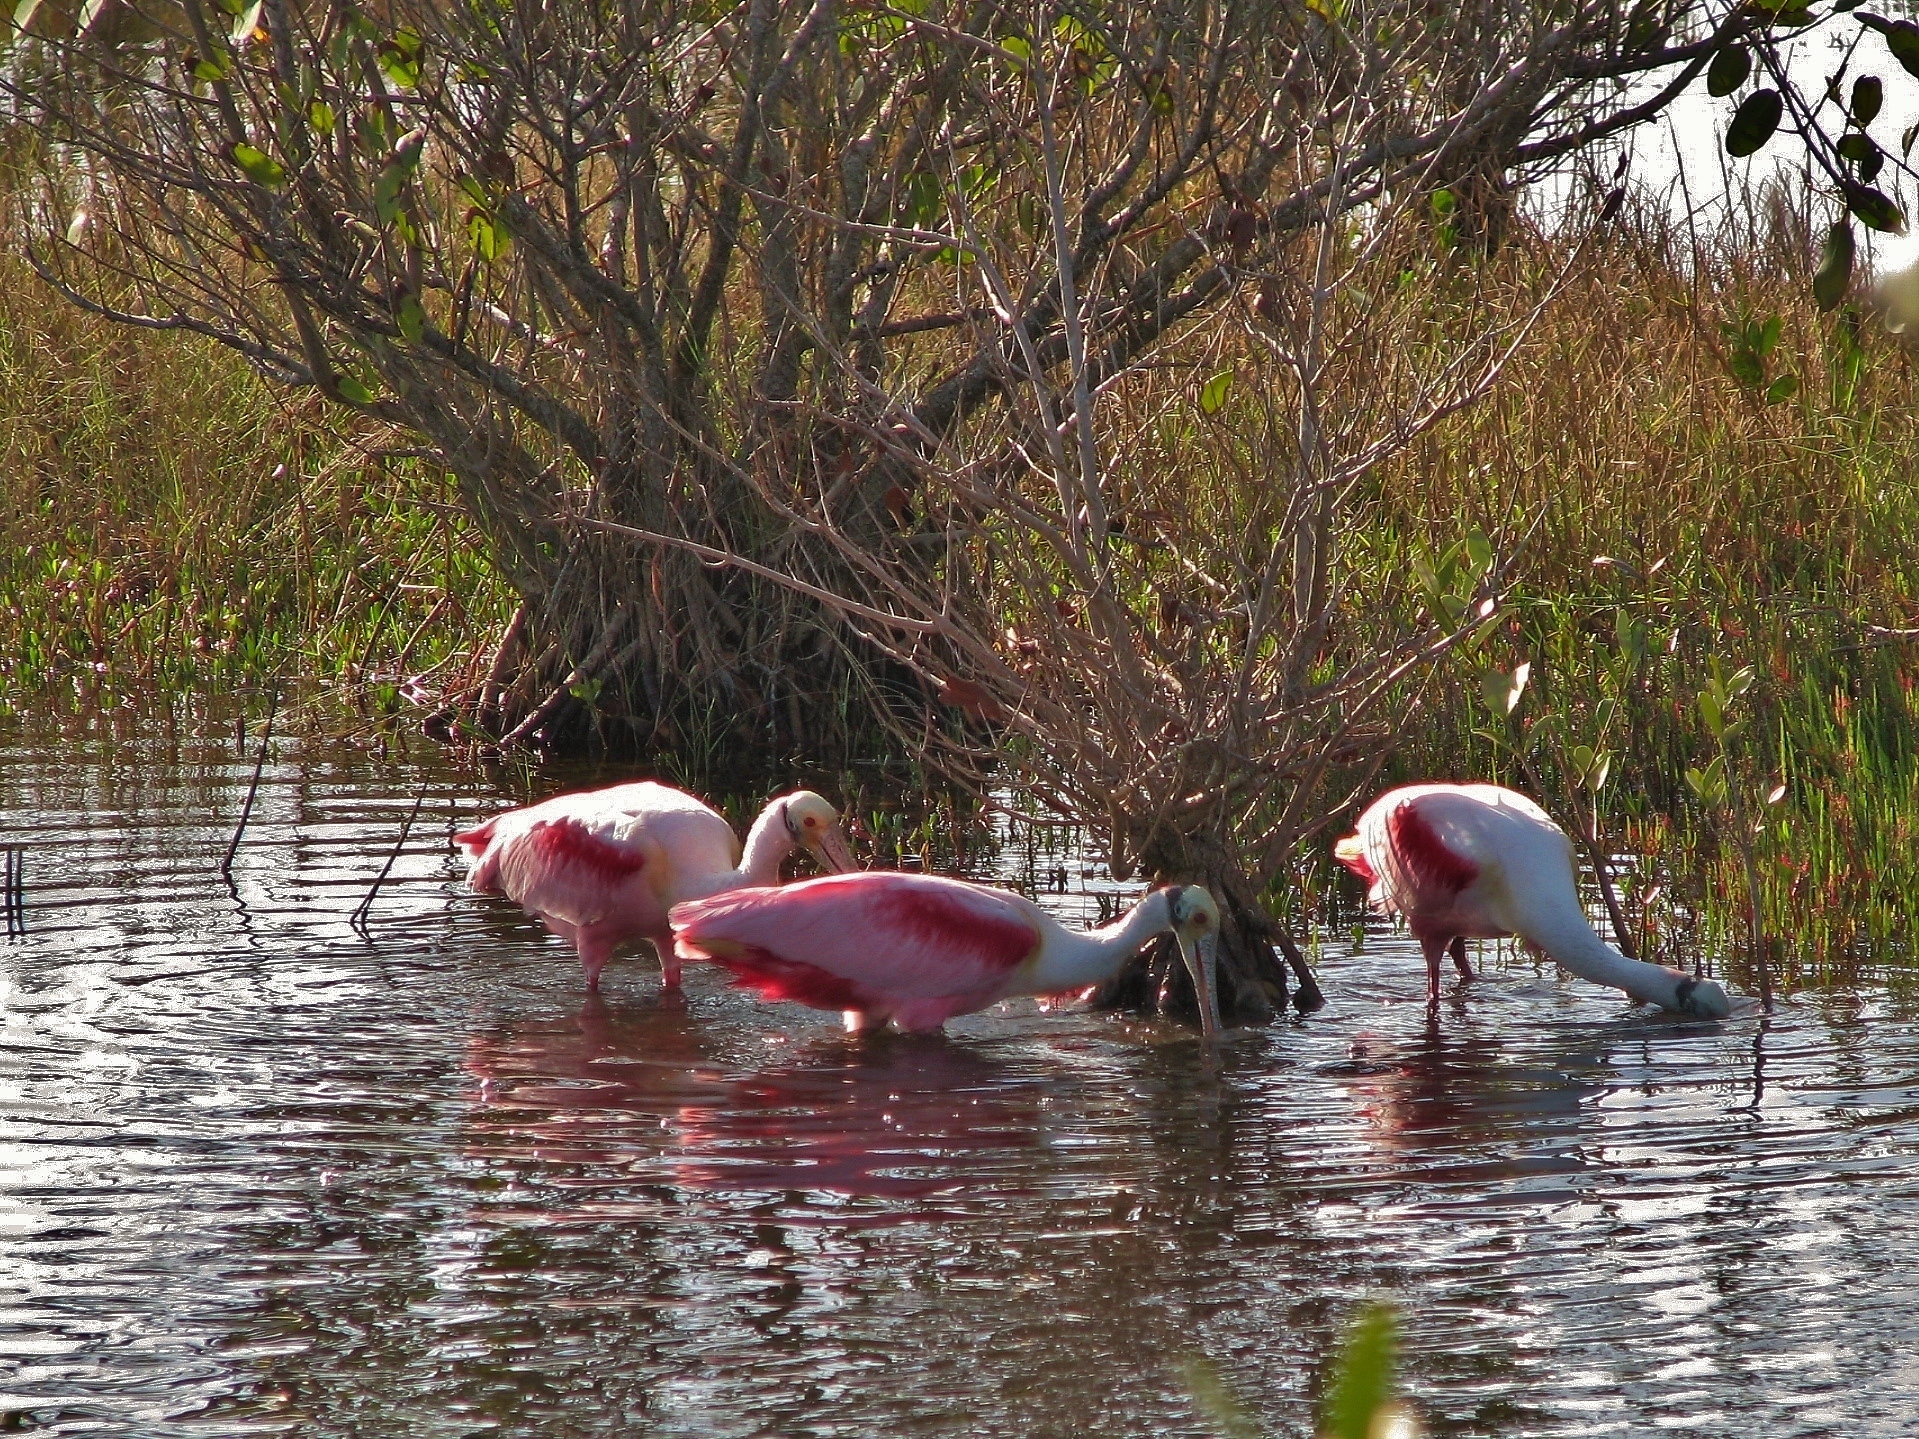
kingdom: Animalia
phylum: Chordata
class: Aves
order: Pelecaniformes
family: Threskiornithidae
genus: Platalea
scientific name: Platalea ajaja
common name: Roseate spoonbill
